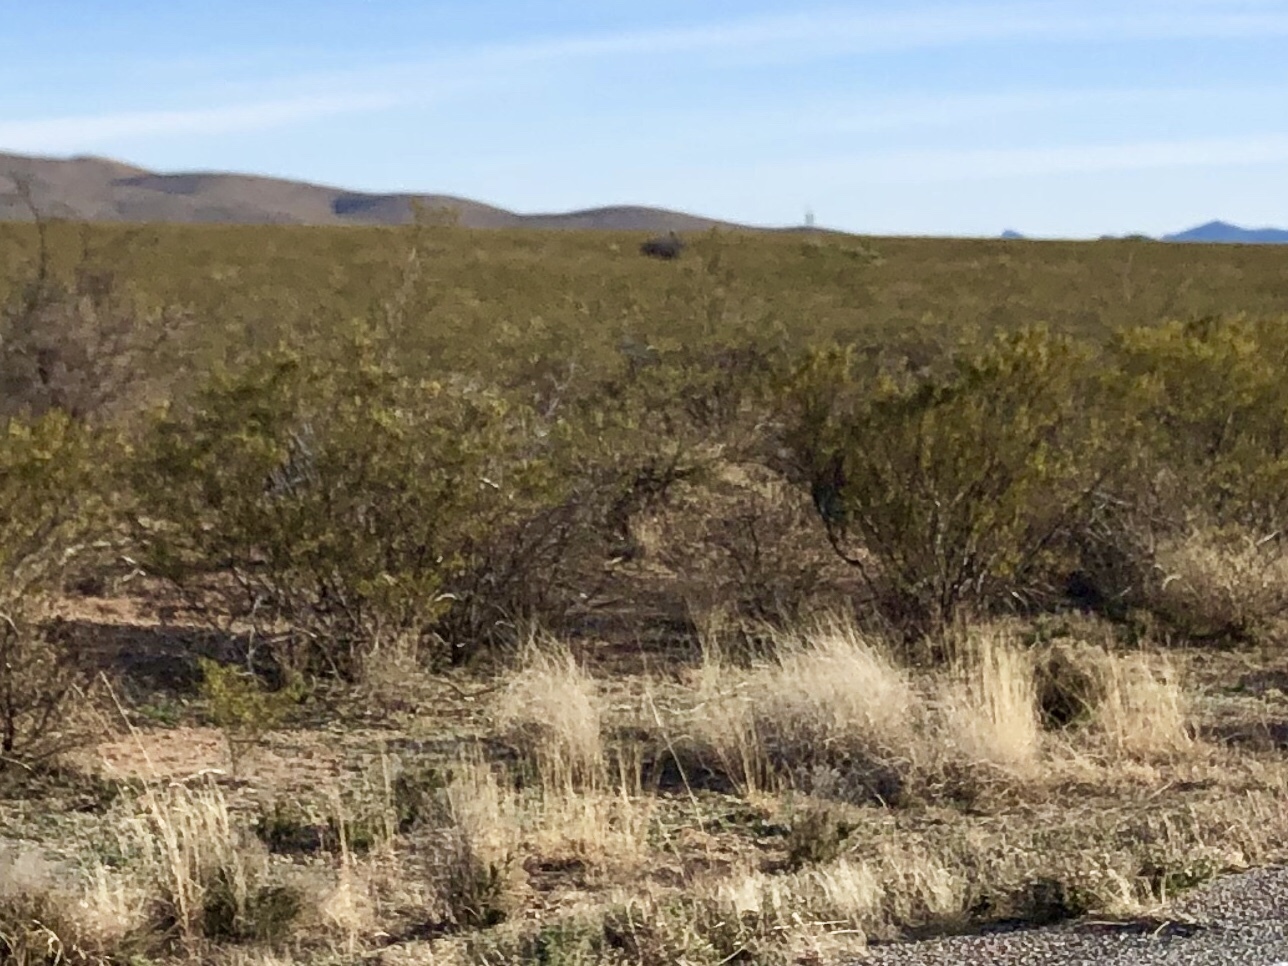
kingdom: Plantae
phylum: Tracheophyta
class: Magnoliopsida
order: Zygophyllales
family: Zygophyllaceae
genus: Larrea
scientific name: Larrea tridentata
